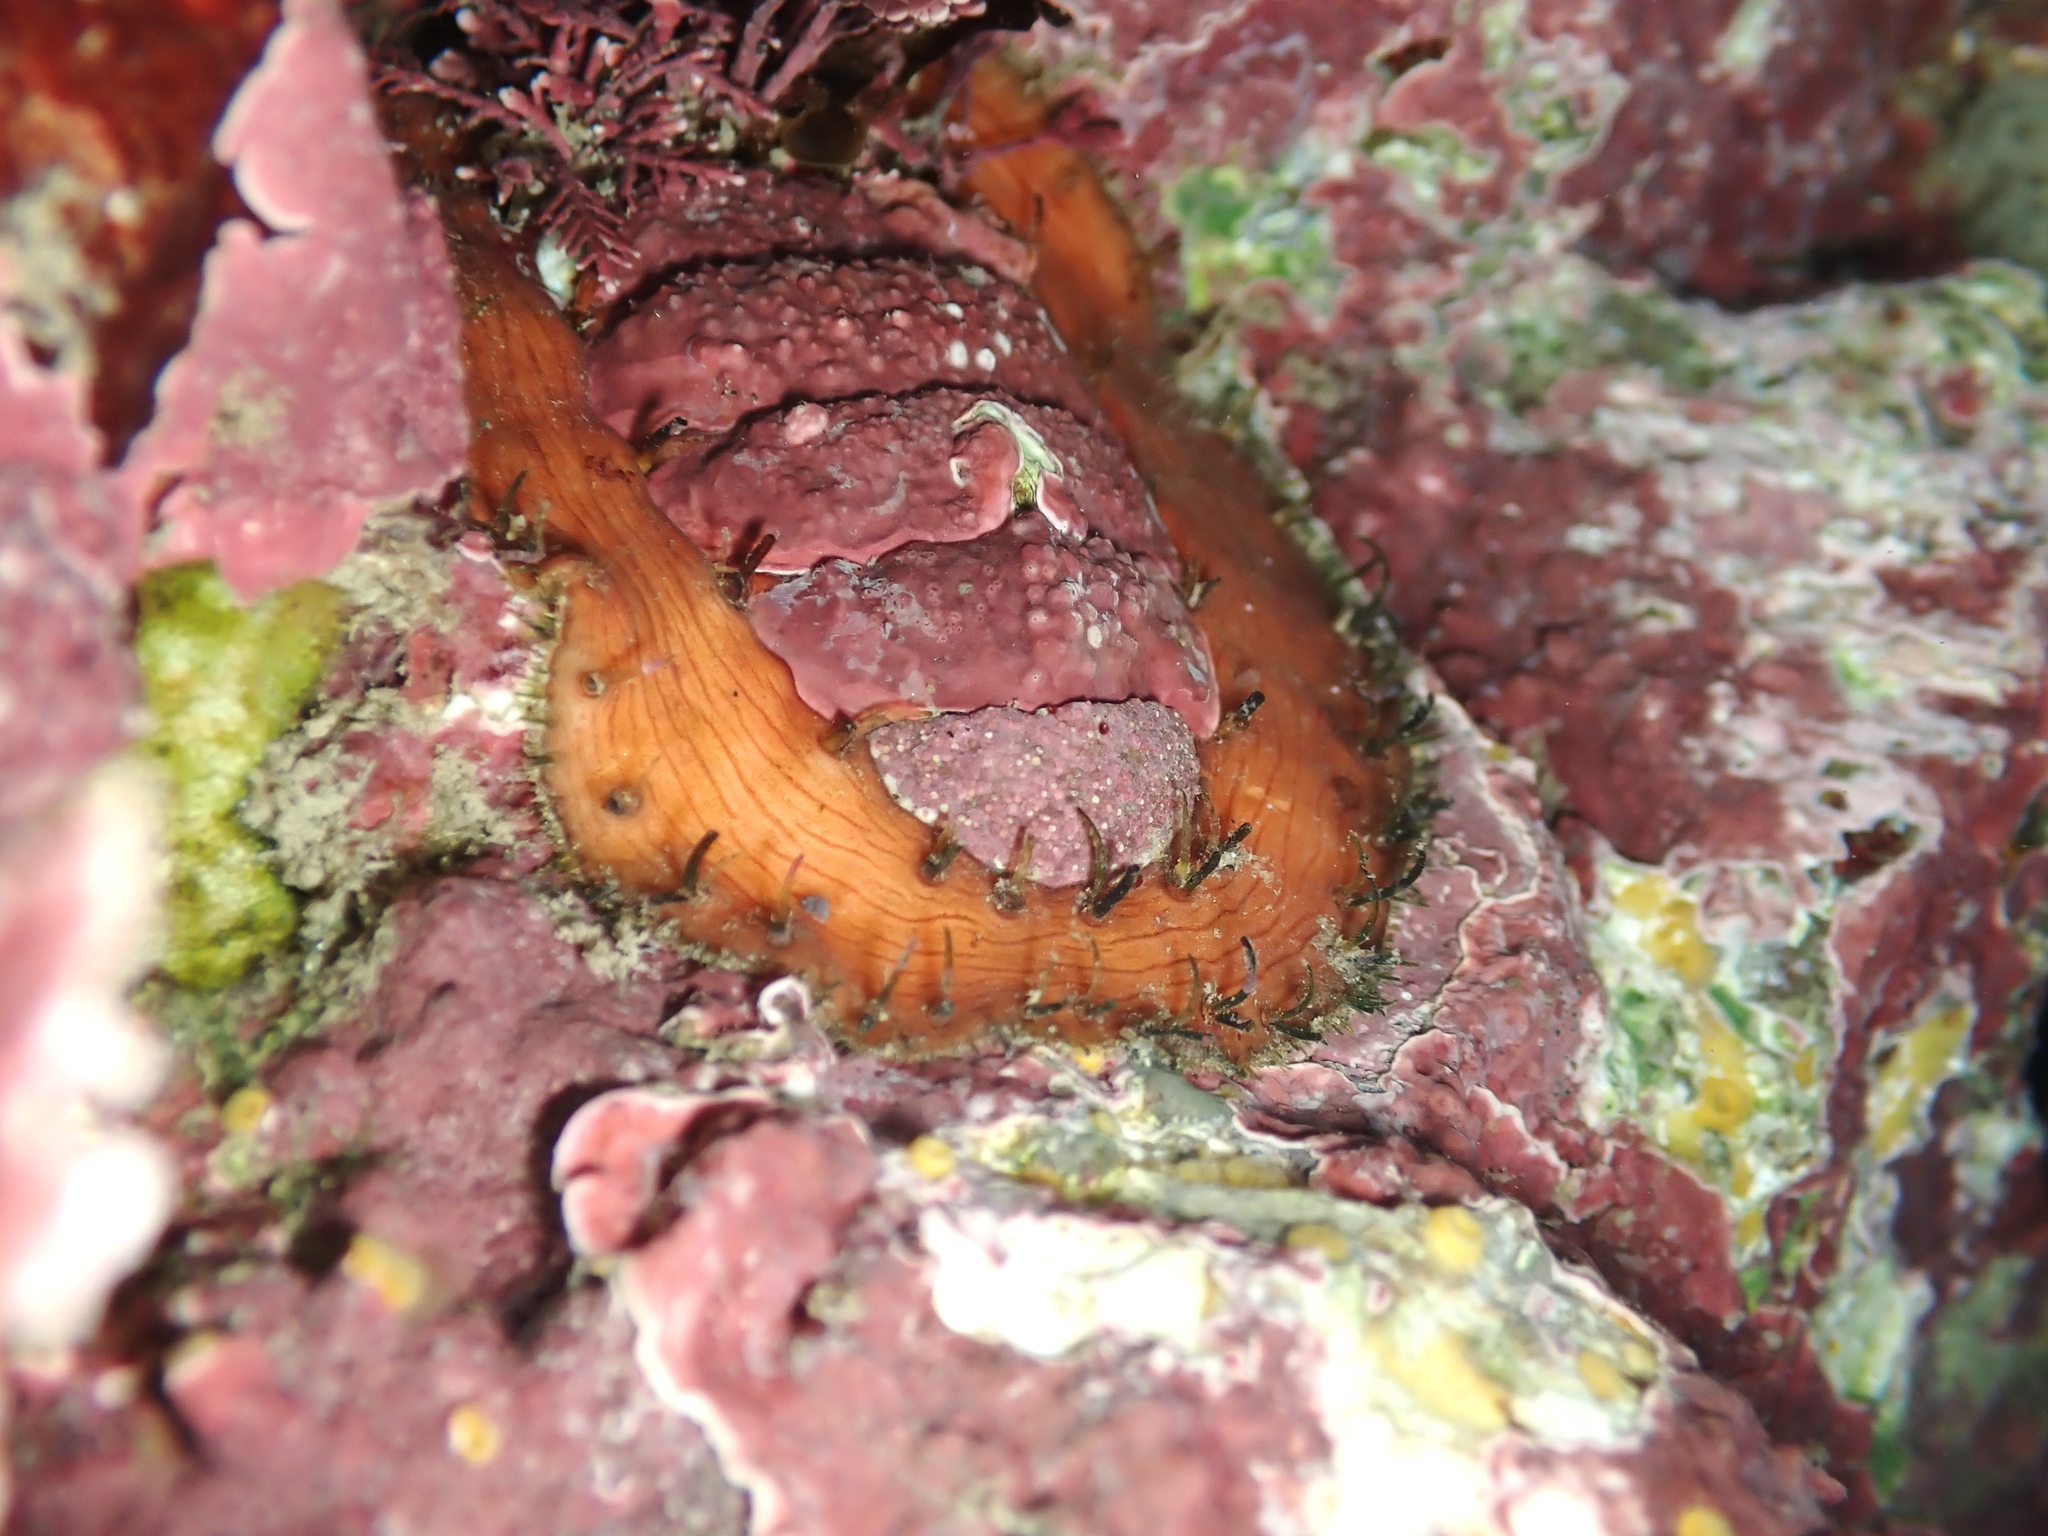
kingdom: Animalia
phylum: Mollusca
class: Polyplacophora
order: Chitonida
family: Mopaliidae
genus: Plaxiphora
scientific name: Plaxiphora biramosa
